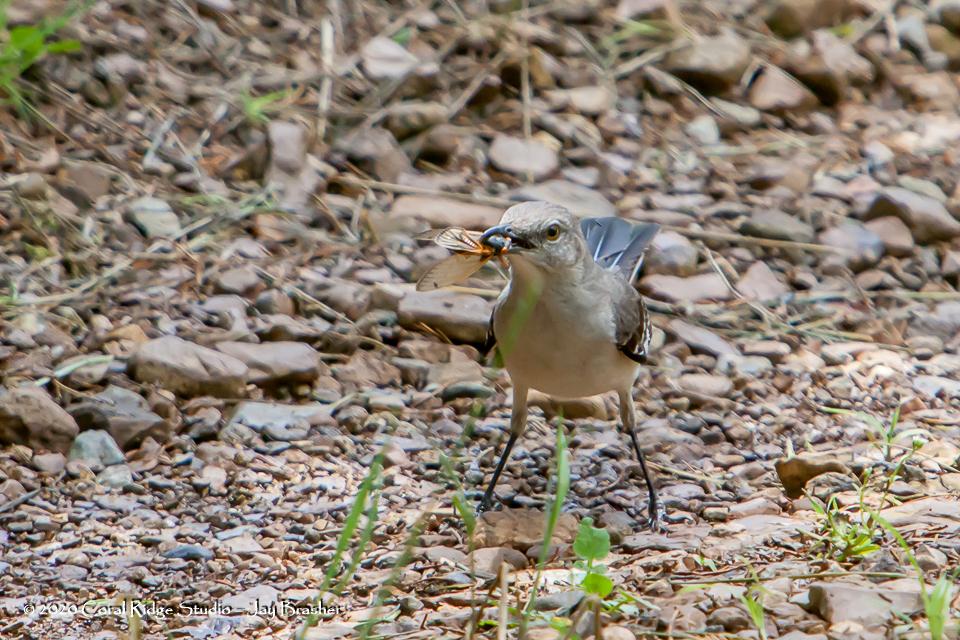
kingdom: Animalia
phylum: Chordata
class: Aves
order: Passeriformes
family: Mimidae
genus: Mimus
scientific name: Mimus polyglottos
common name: Northern mockingbird
